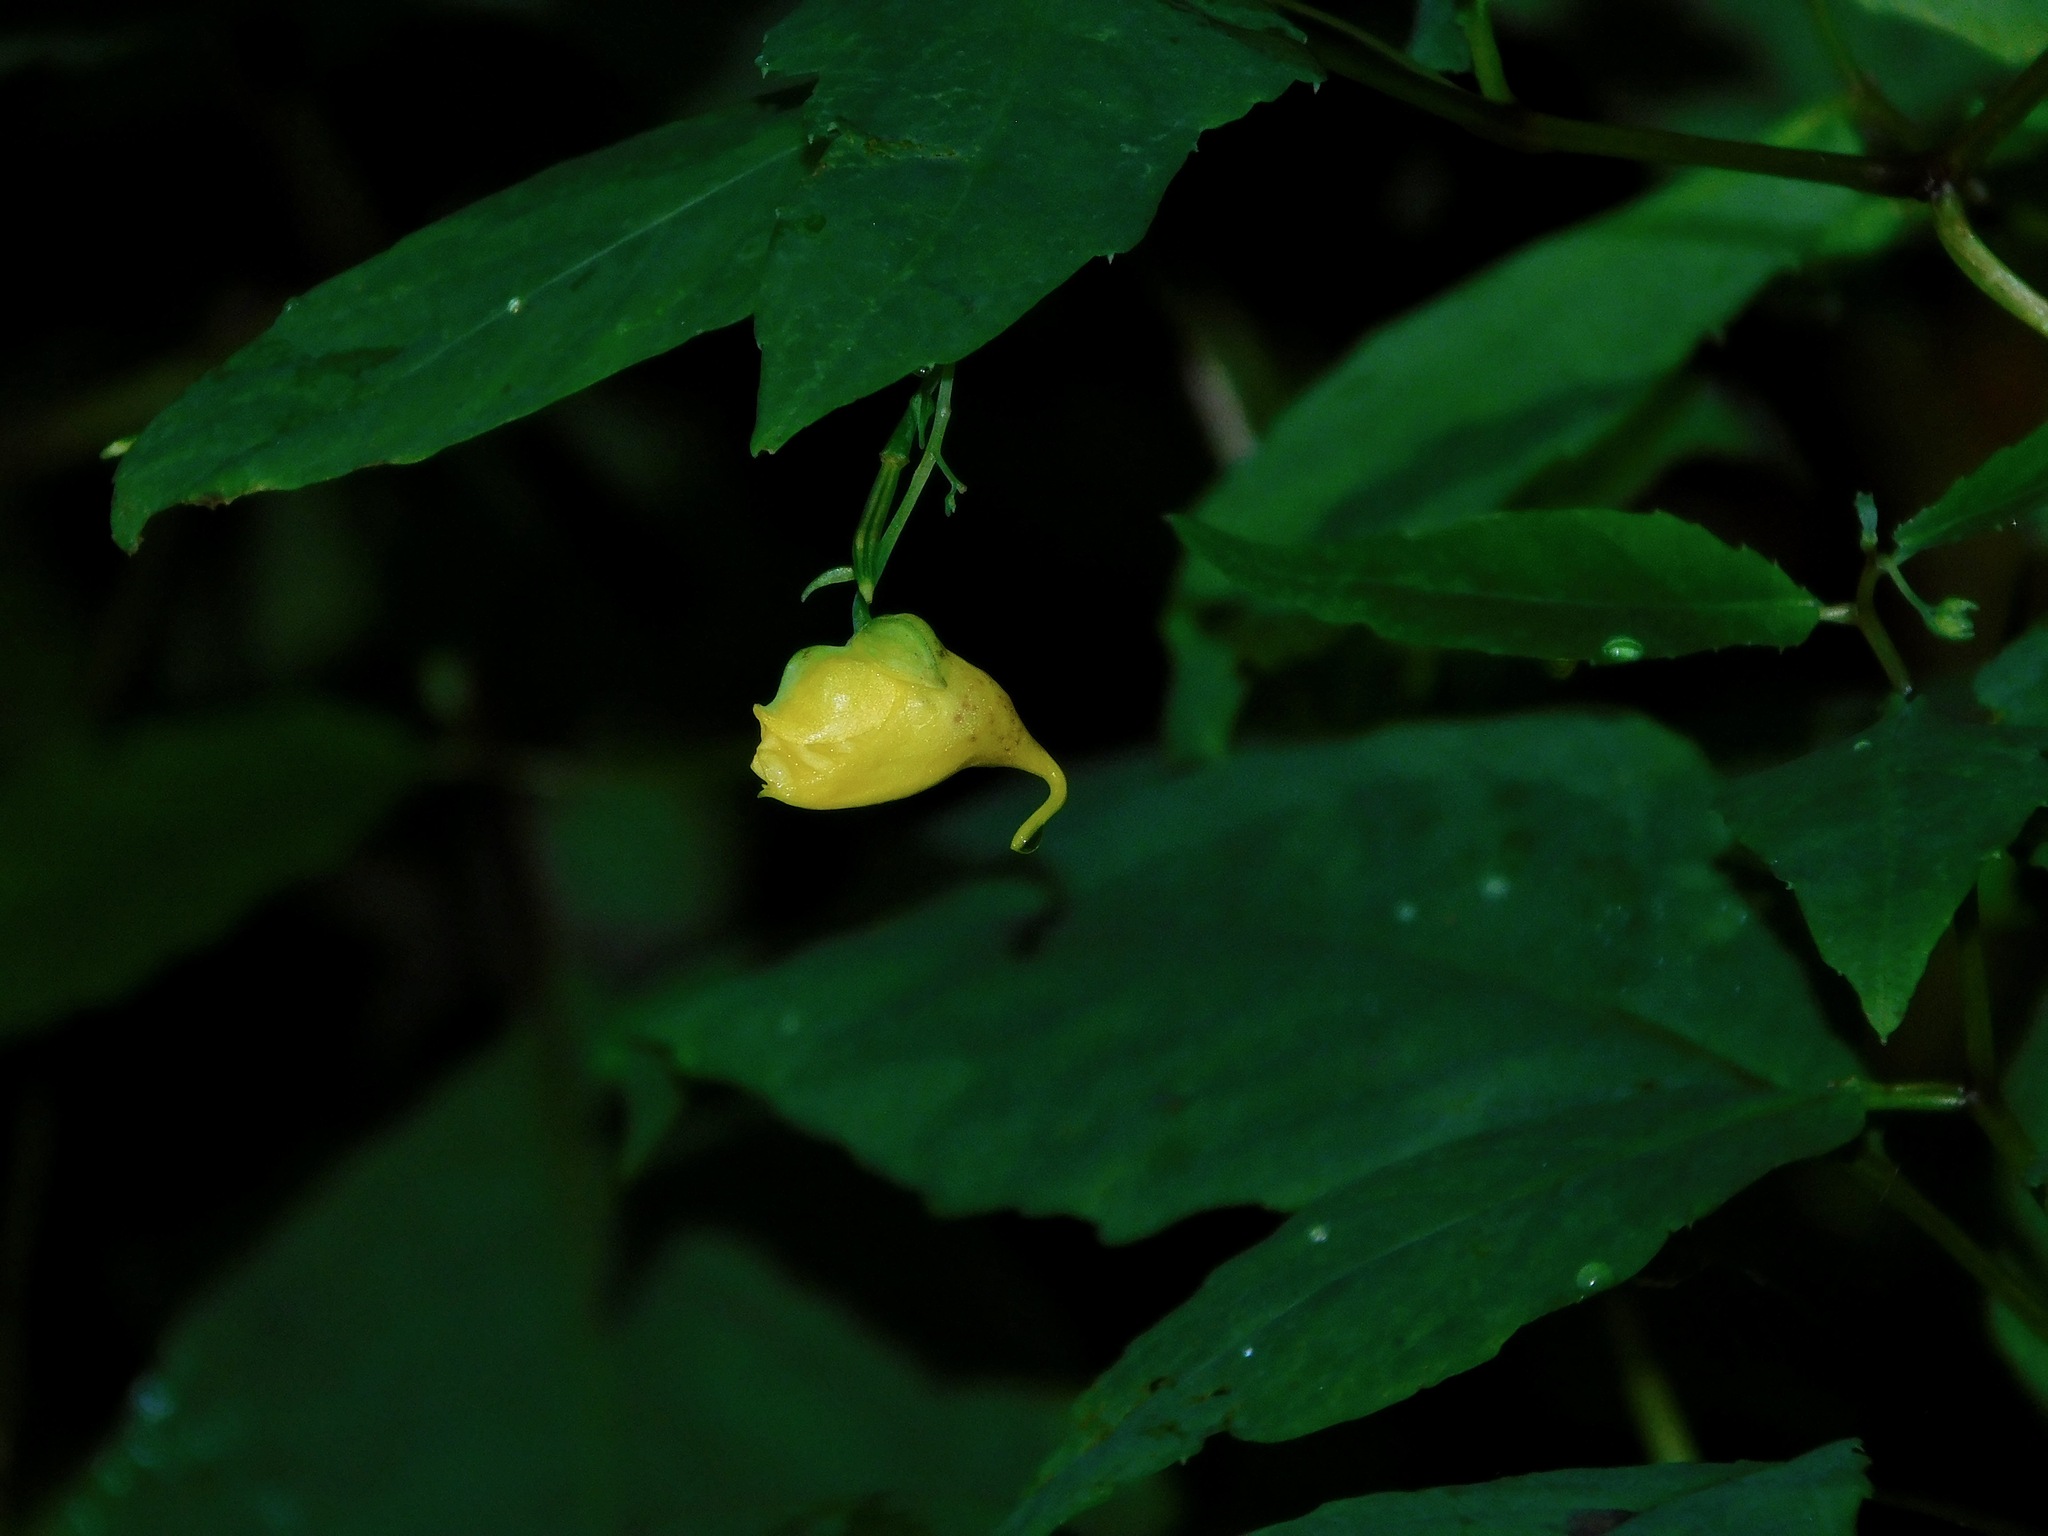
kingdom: Plantae
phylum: Tracheophyta
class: Magnoliopsida
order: Ericales
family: Balsaminaceae
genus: Impatiens
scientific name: Impatiens pallida
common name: Pale snapweed
